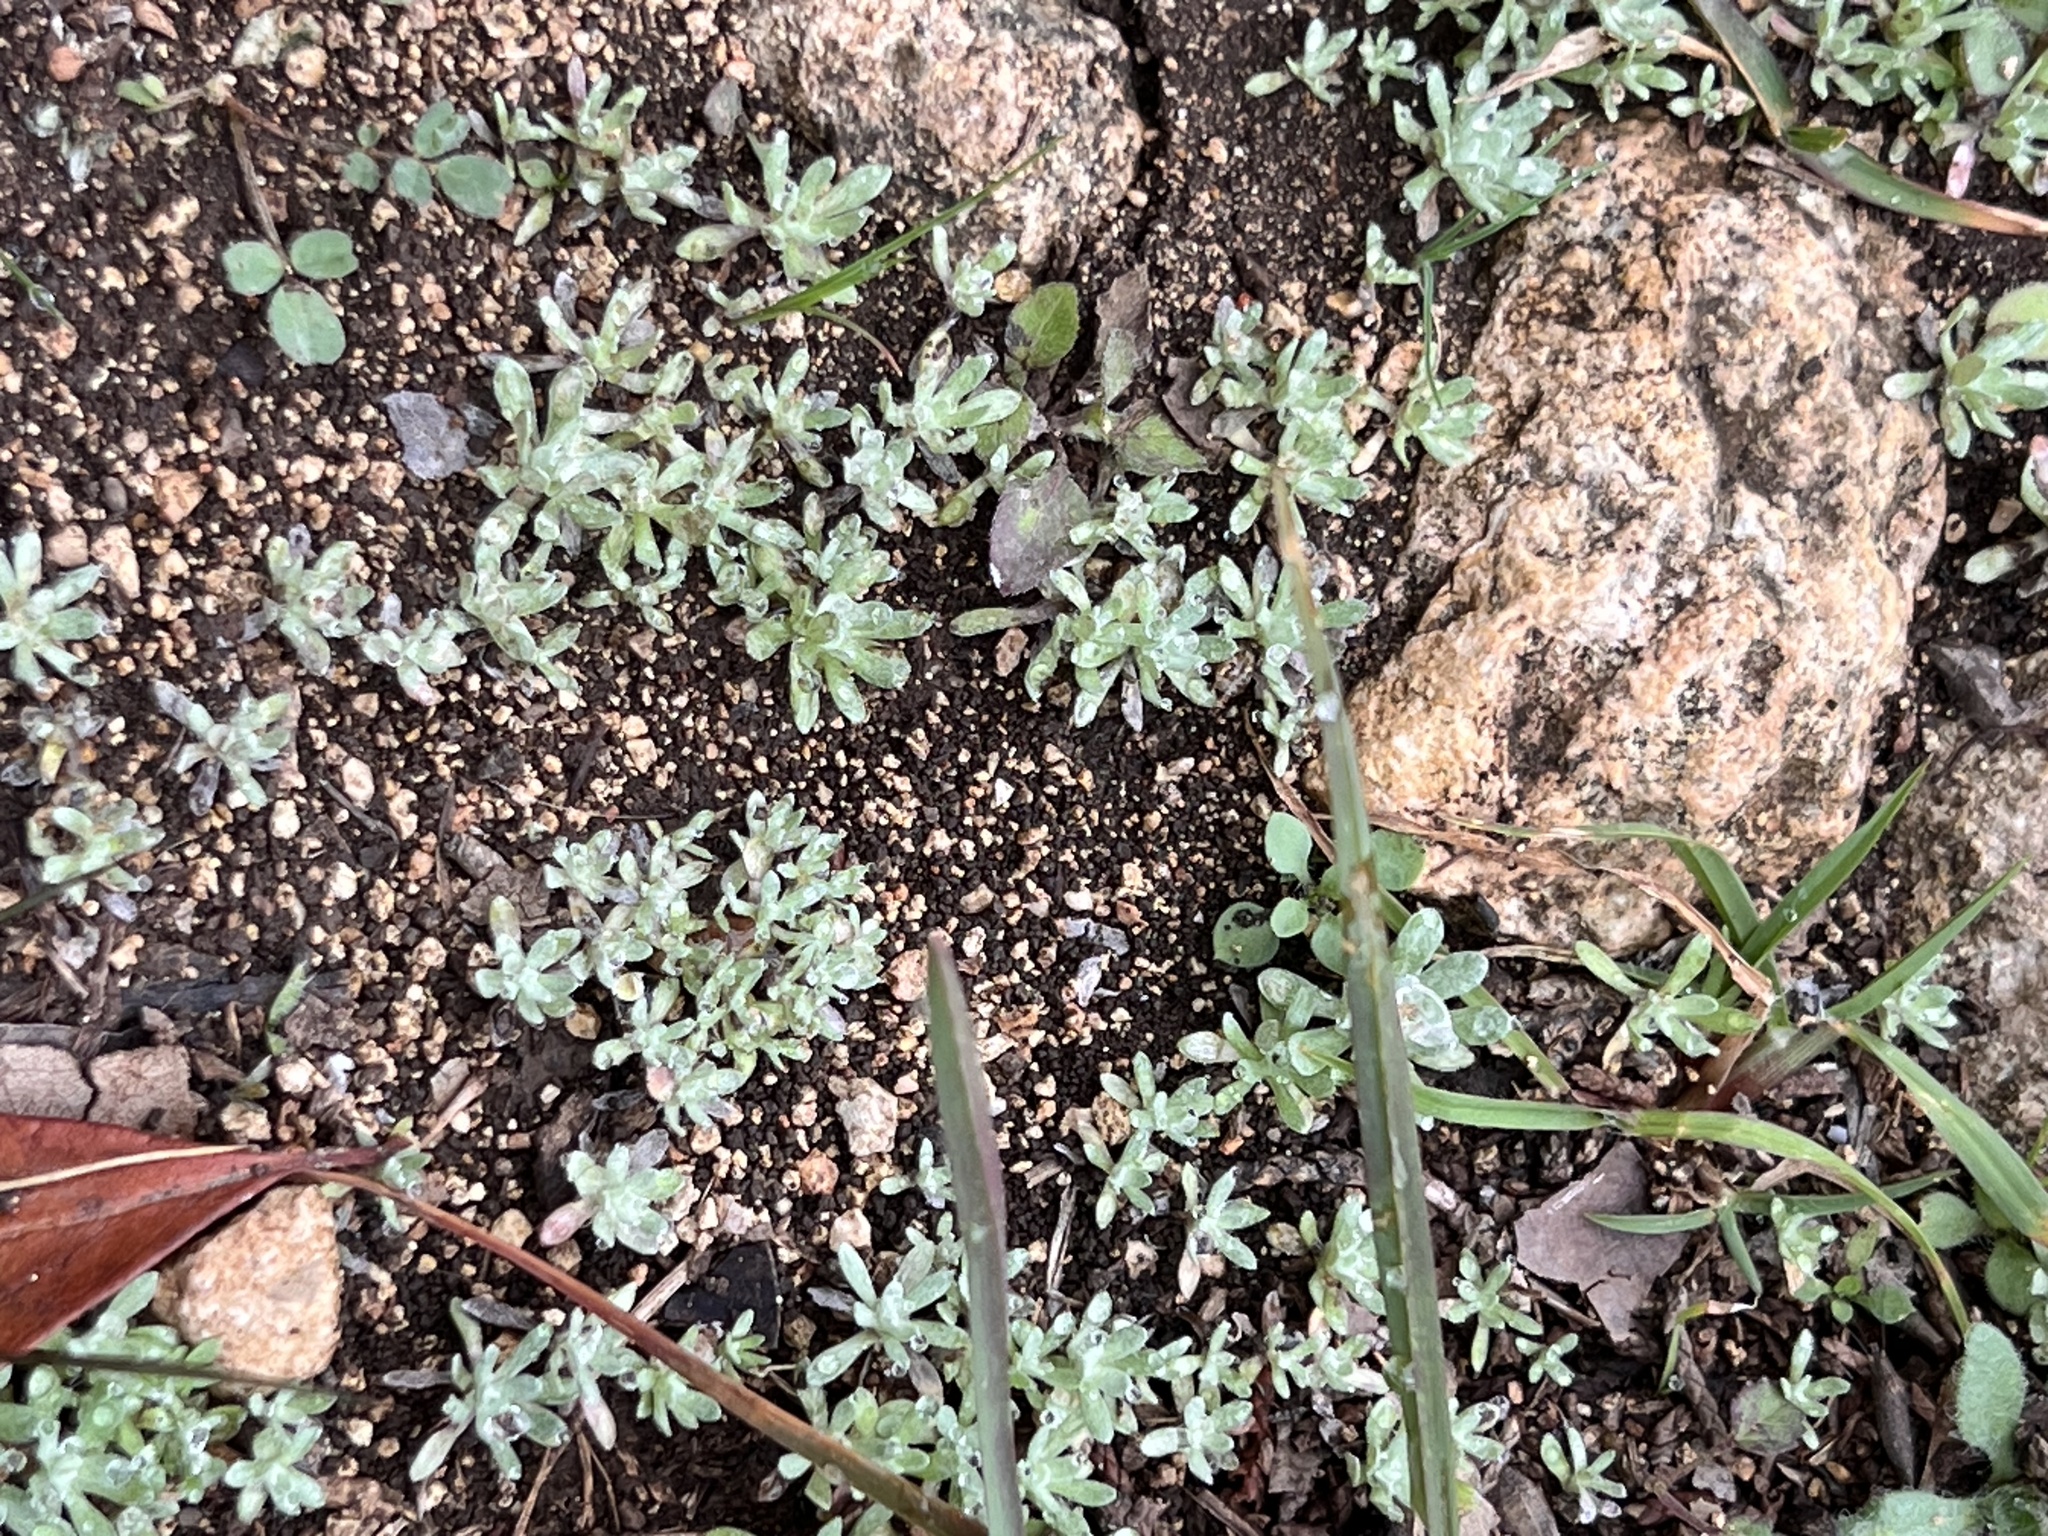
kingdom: Plantae
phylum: Tracheophyta
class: Magnoliopsida
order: Asterales
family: Asteraceae
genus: Diaperia
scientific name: Diaperia prolifera
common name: Big-head rabbit-tobacco
